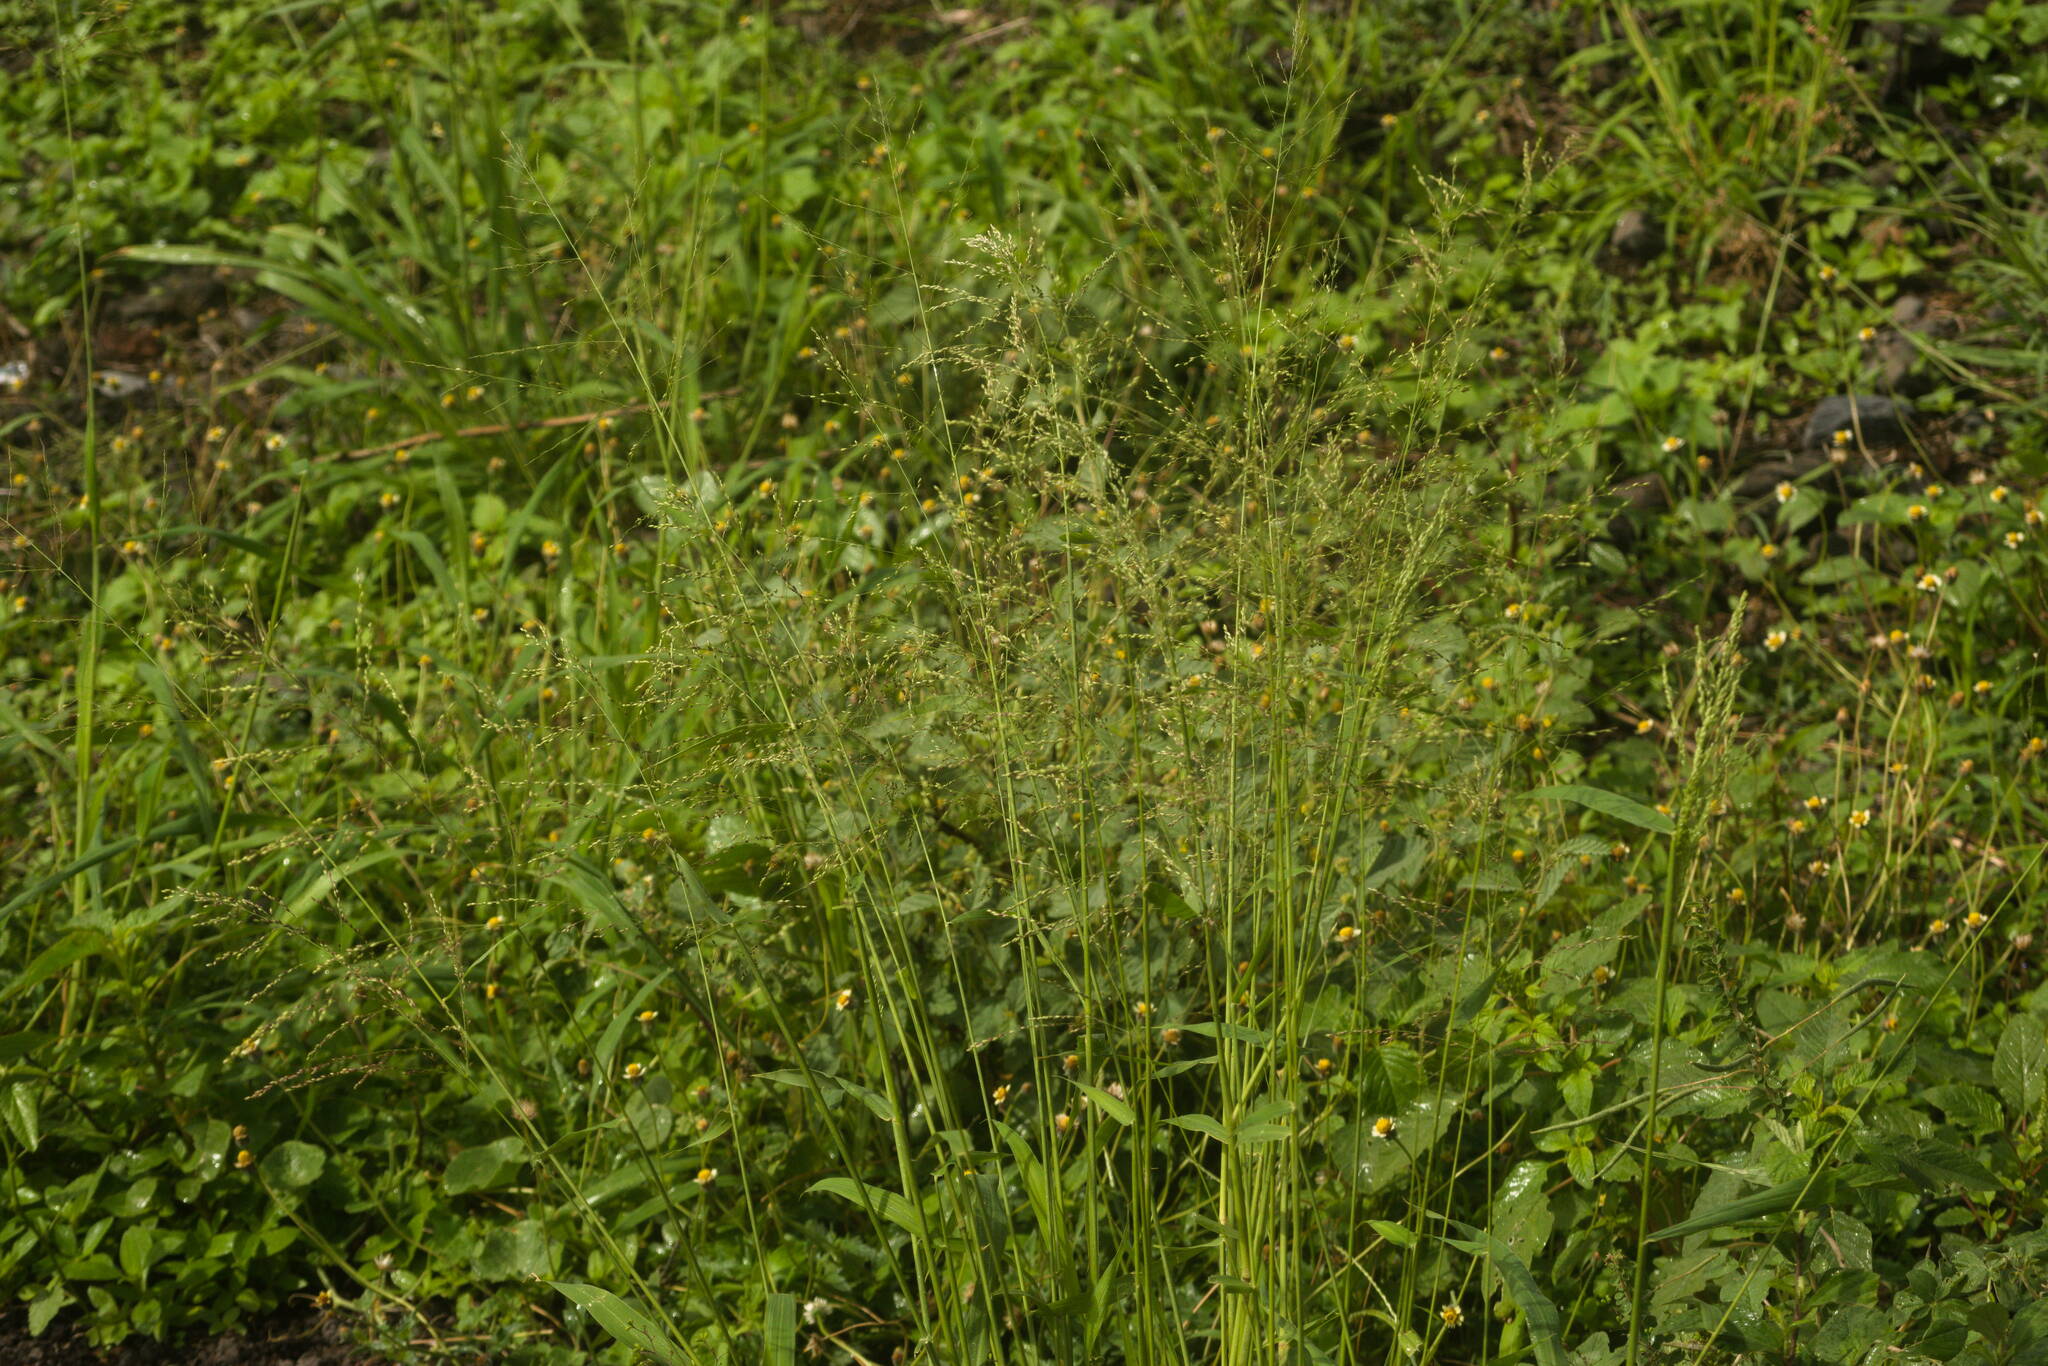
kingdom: Plantae
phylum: Tracheophyta
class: Liliopsida
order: Poales
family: Poaceae
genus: Megathyrsus
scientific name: Megathyrsus maximus
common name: Guineagrass
